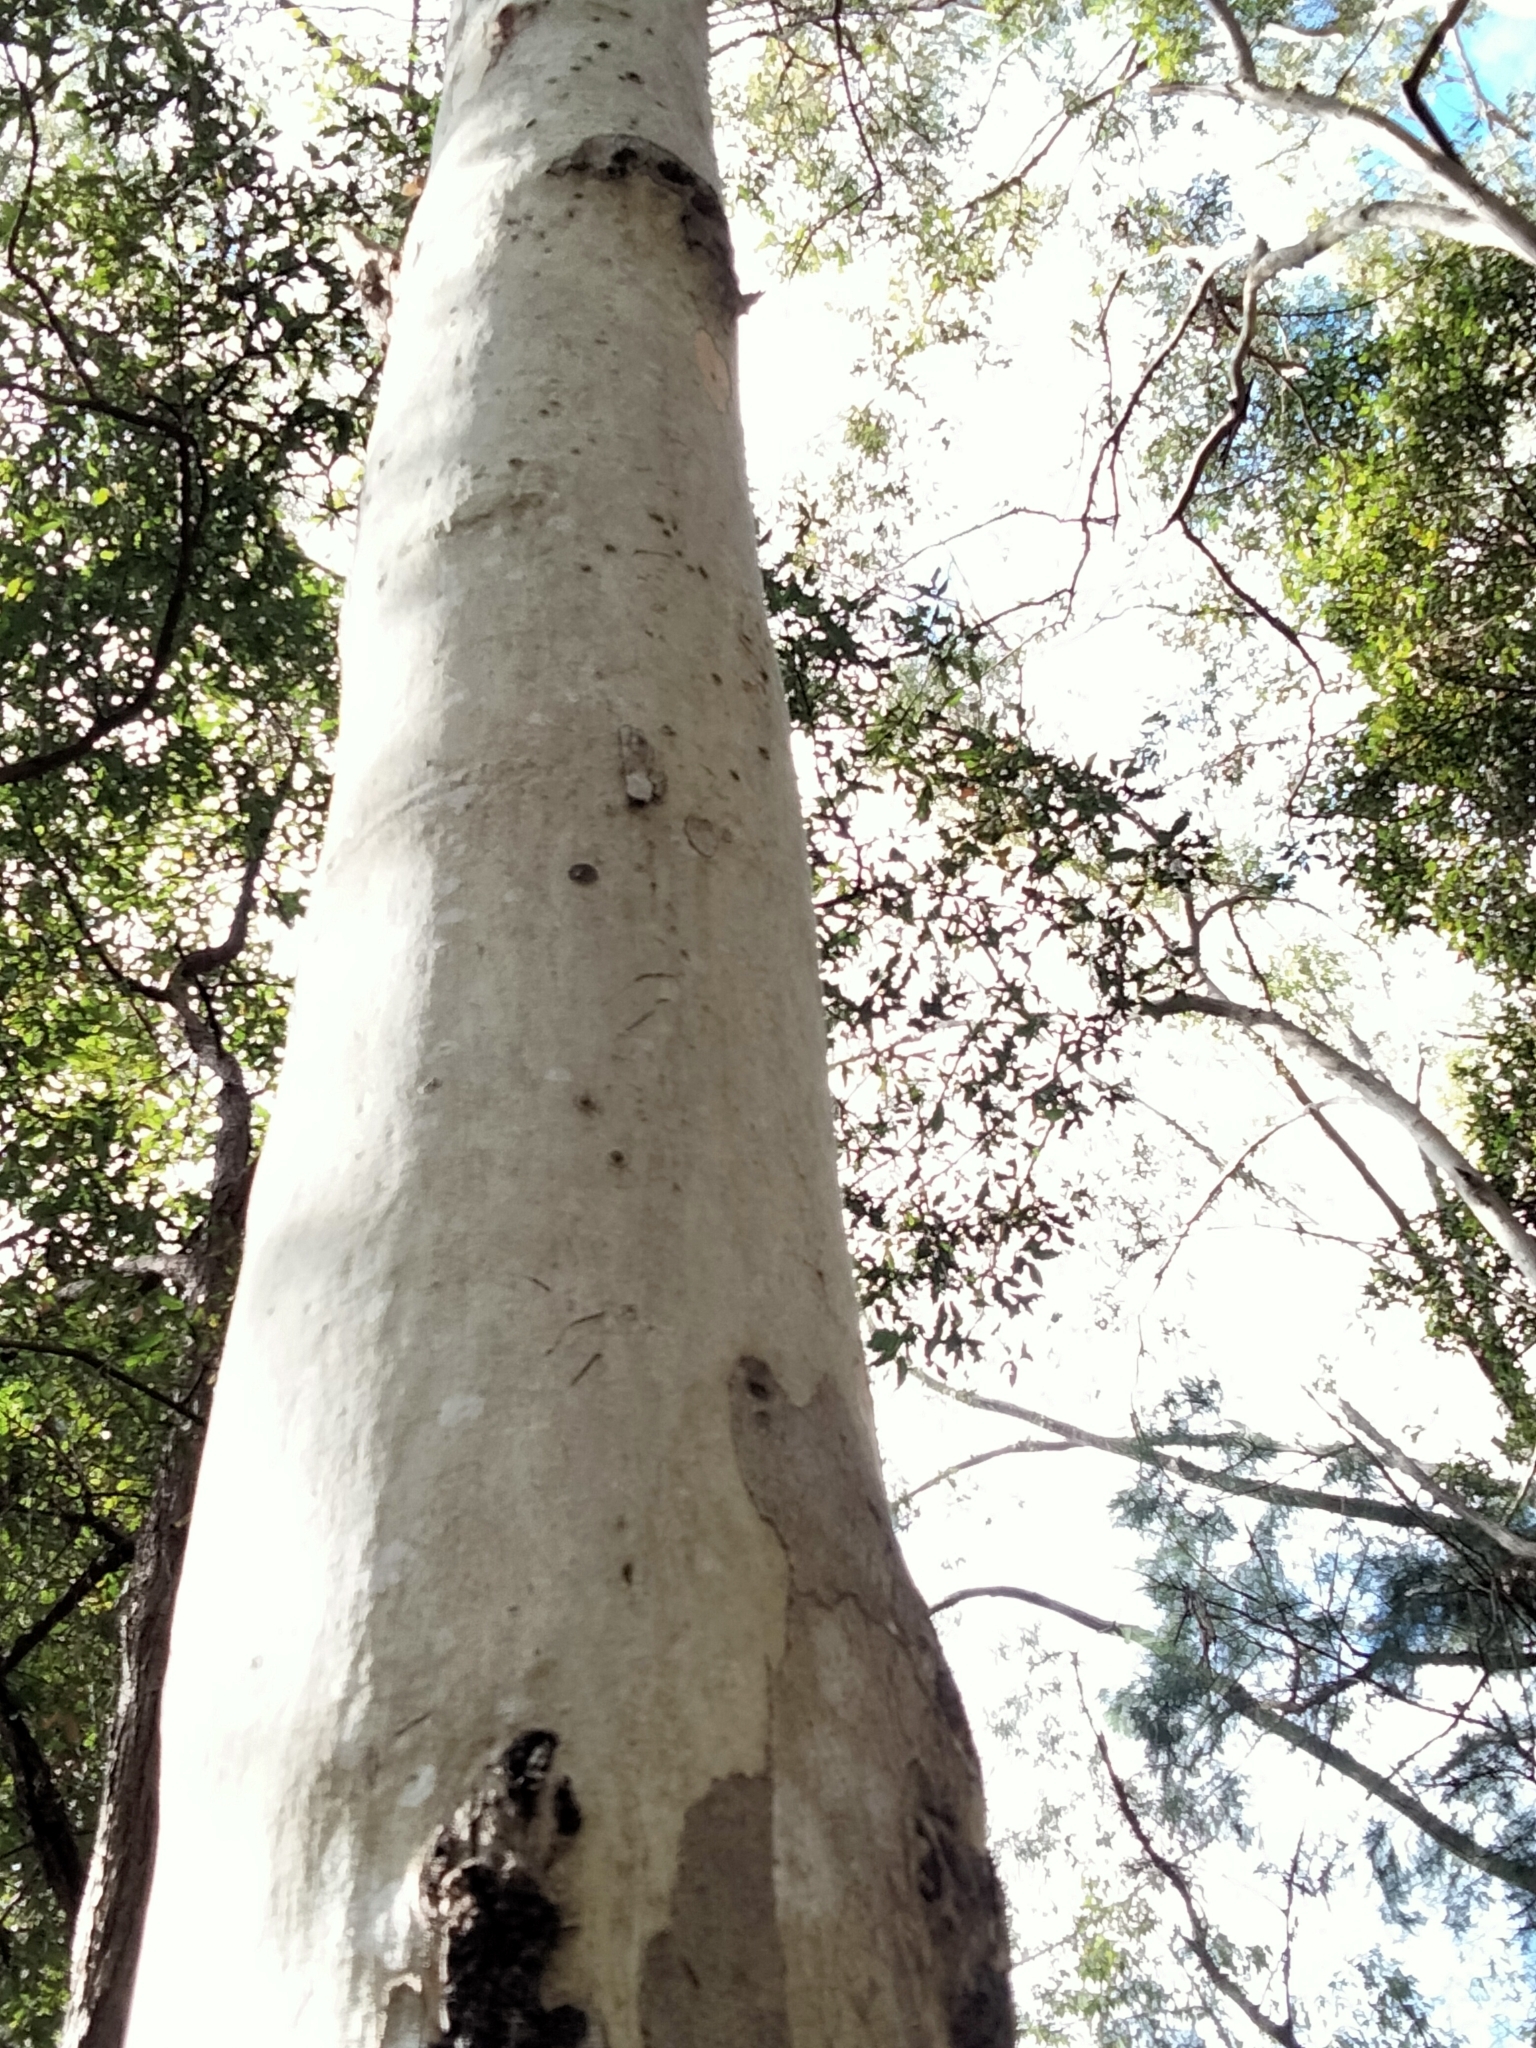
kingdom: Animalia
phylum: Chordata
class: Mammalia
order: Diprotodontia
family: Phascolarctidae
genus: Phascolarctos
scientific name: Phascolarctos cinereus
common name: Koala
